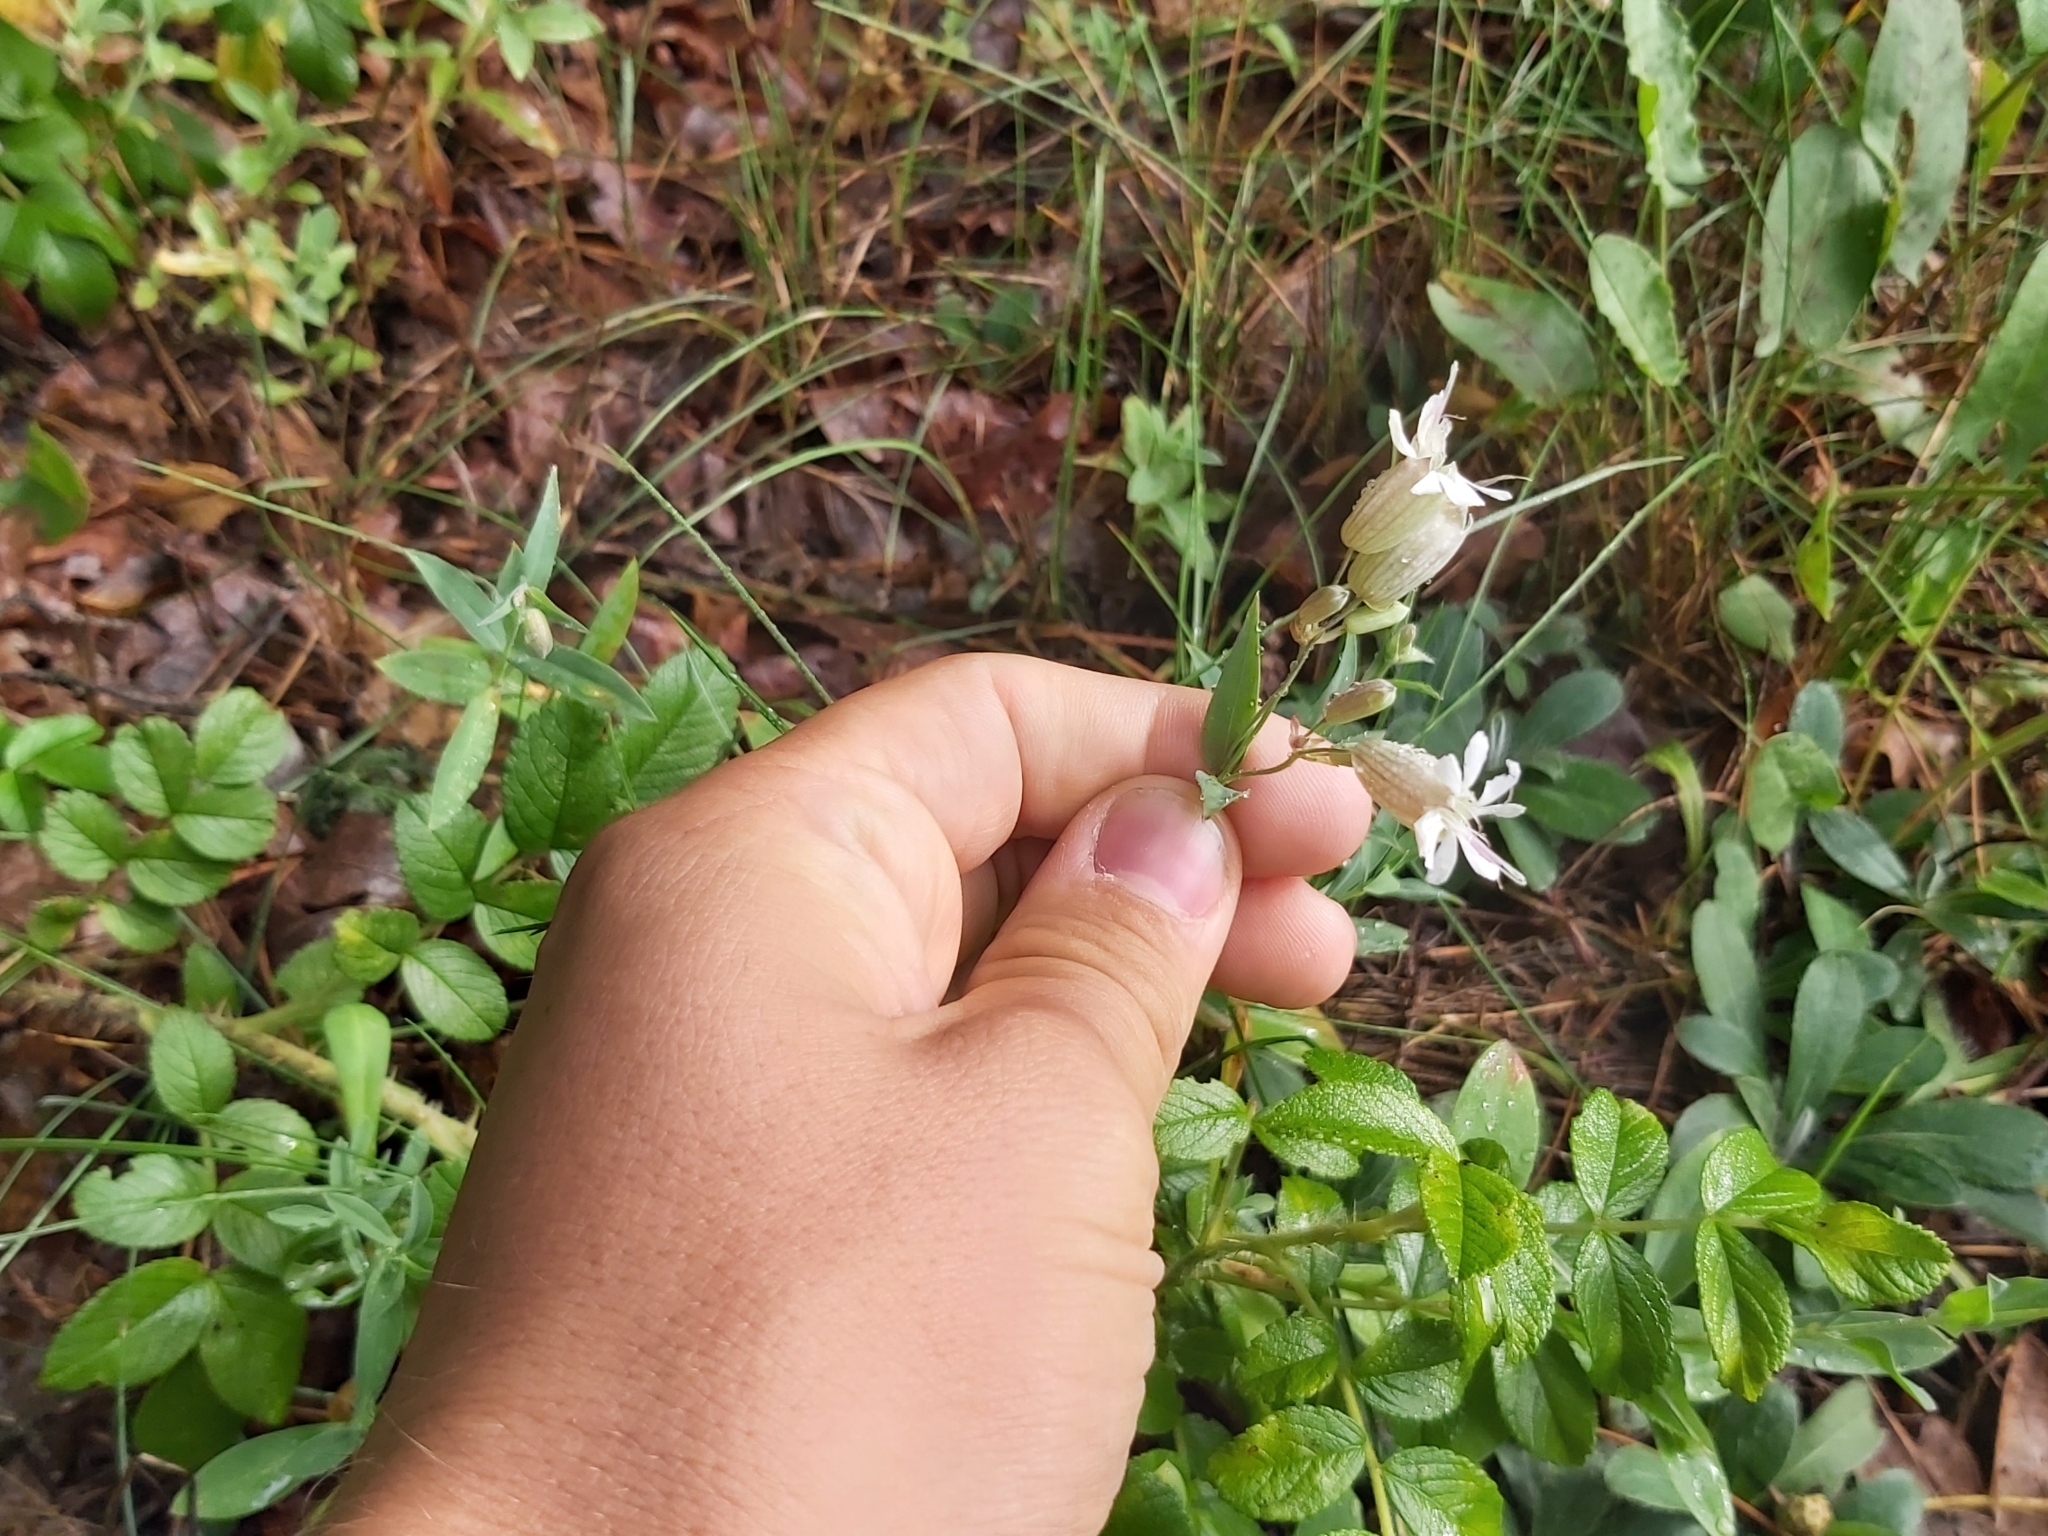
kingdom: Plantae
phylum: Tracheophyta
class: Magnoliopsida
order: Caryophyllales
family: Caryophyllaceae
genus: Silene
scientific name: Silene vulgaris
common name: Bladder campion
